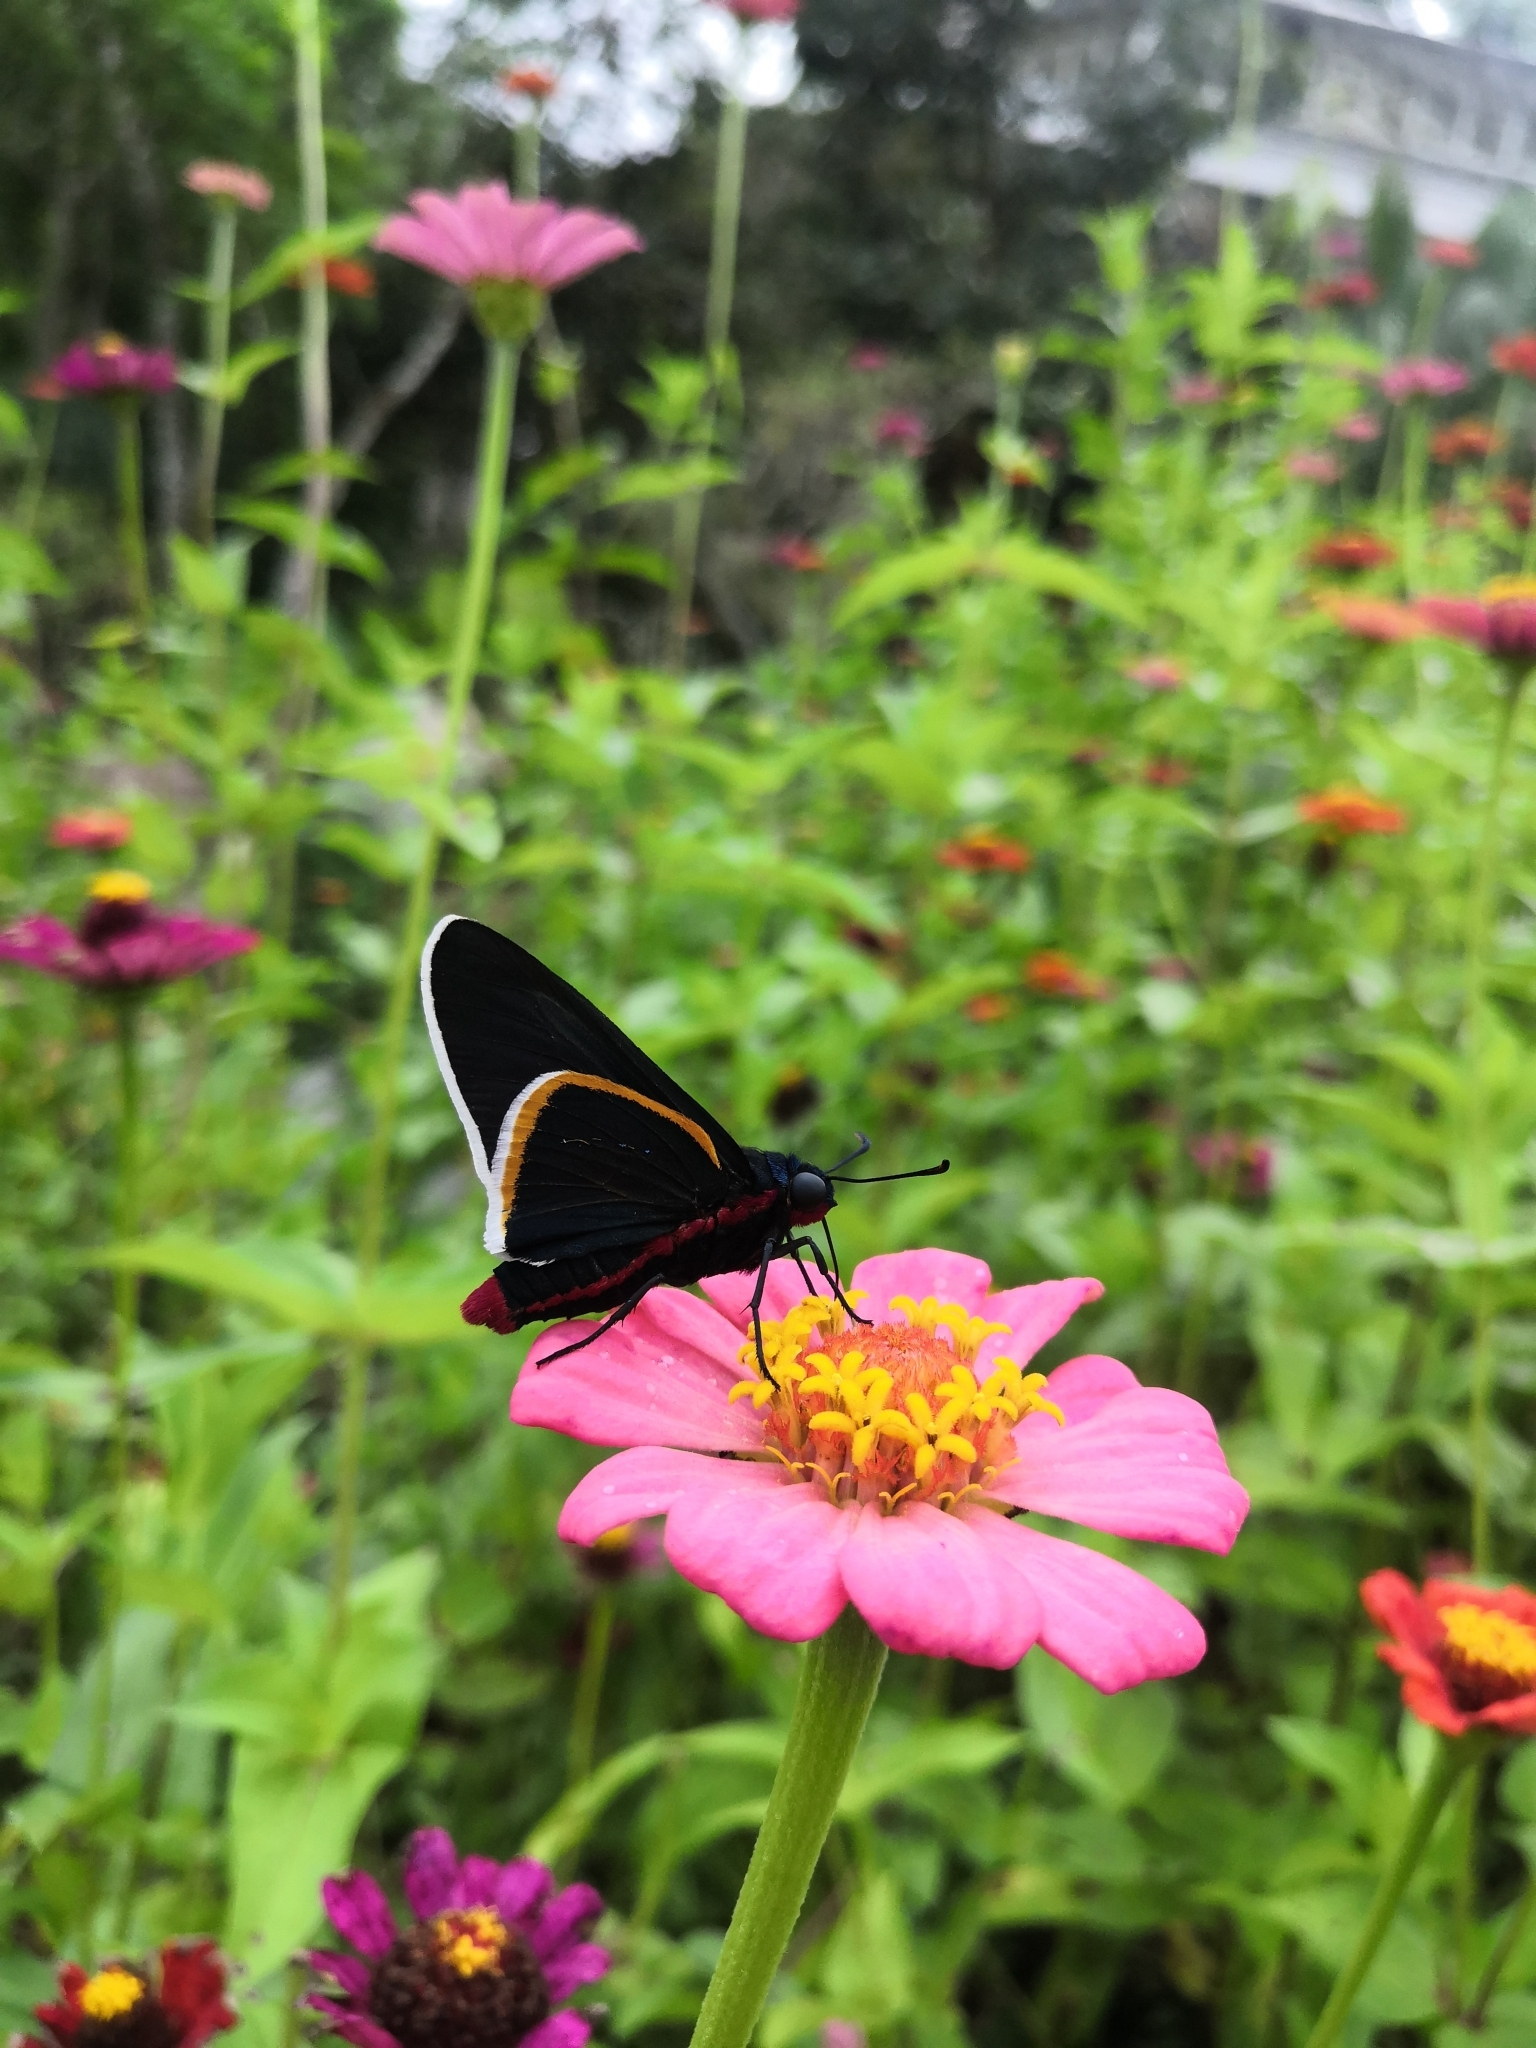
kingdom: Animalia
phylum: Arthropoda
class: Insecta
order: Lepidoptera
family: Hesperiidae
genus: Mysoria
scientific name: Mysoria amra
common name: Blue-collared firetip
